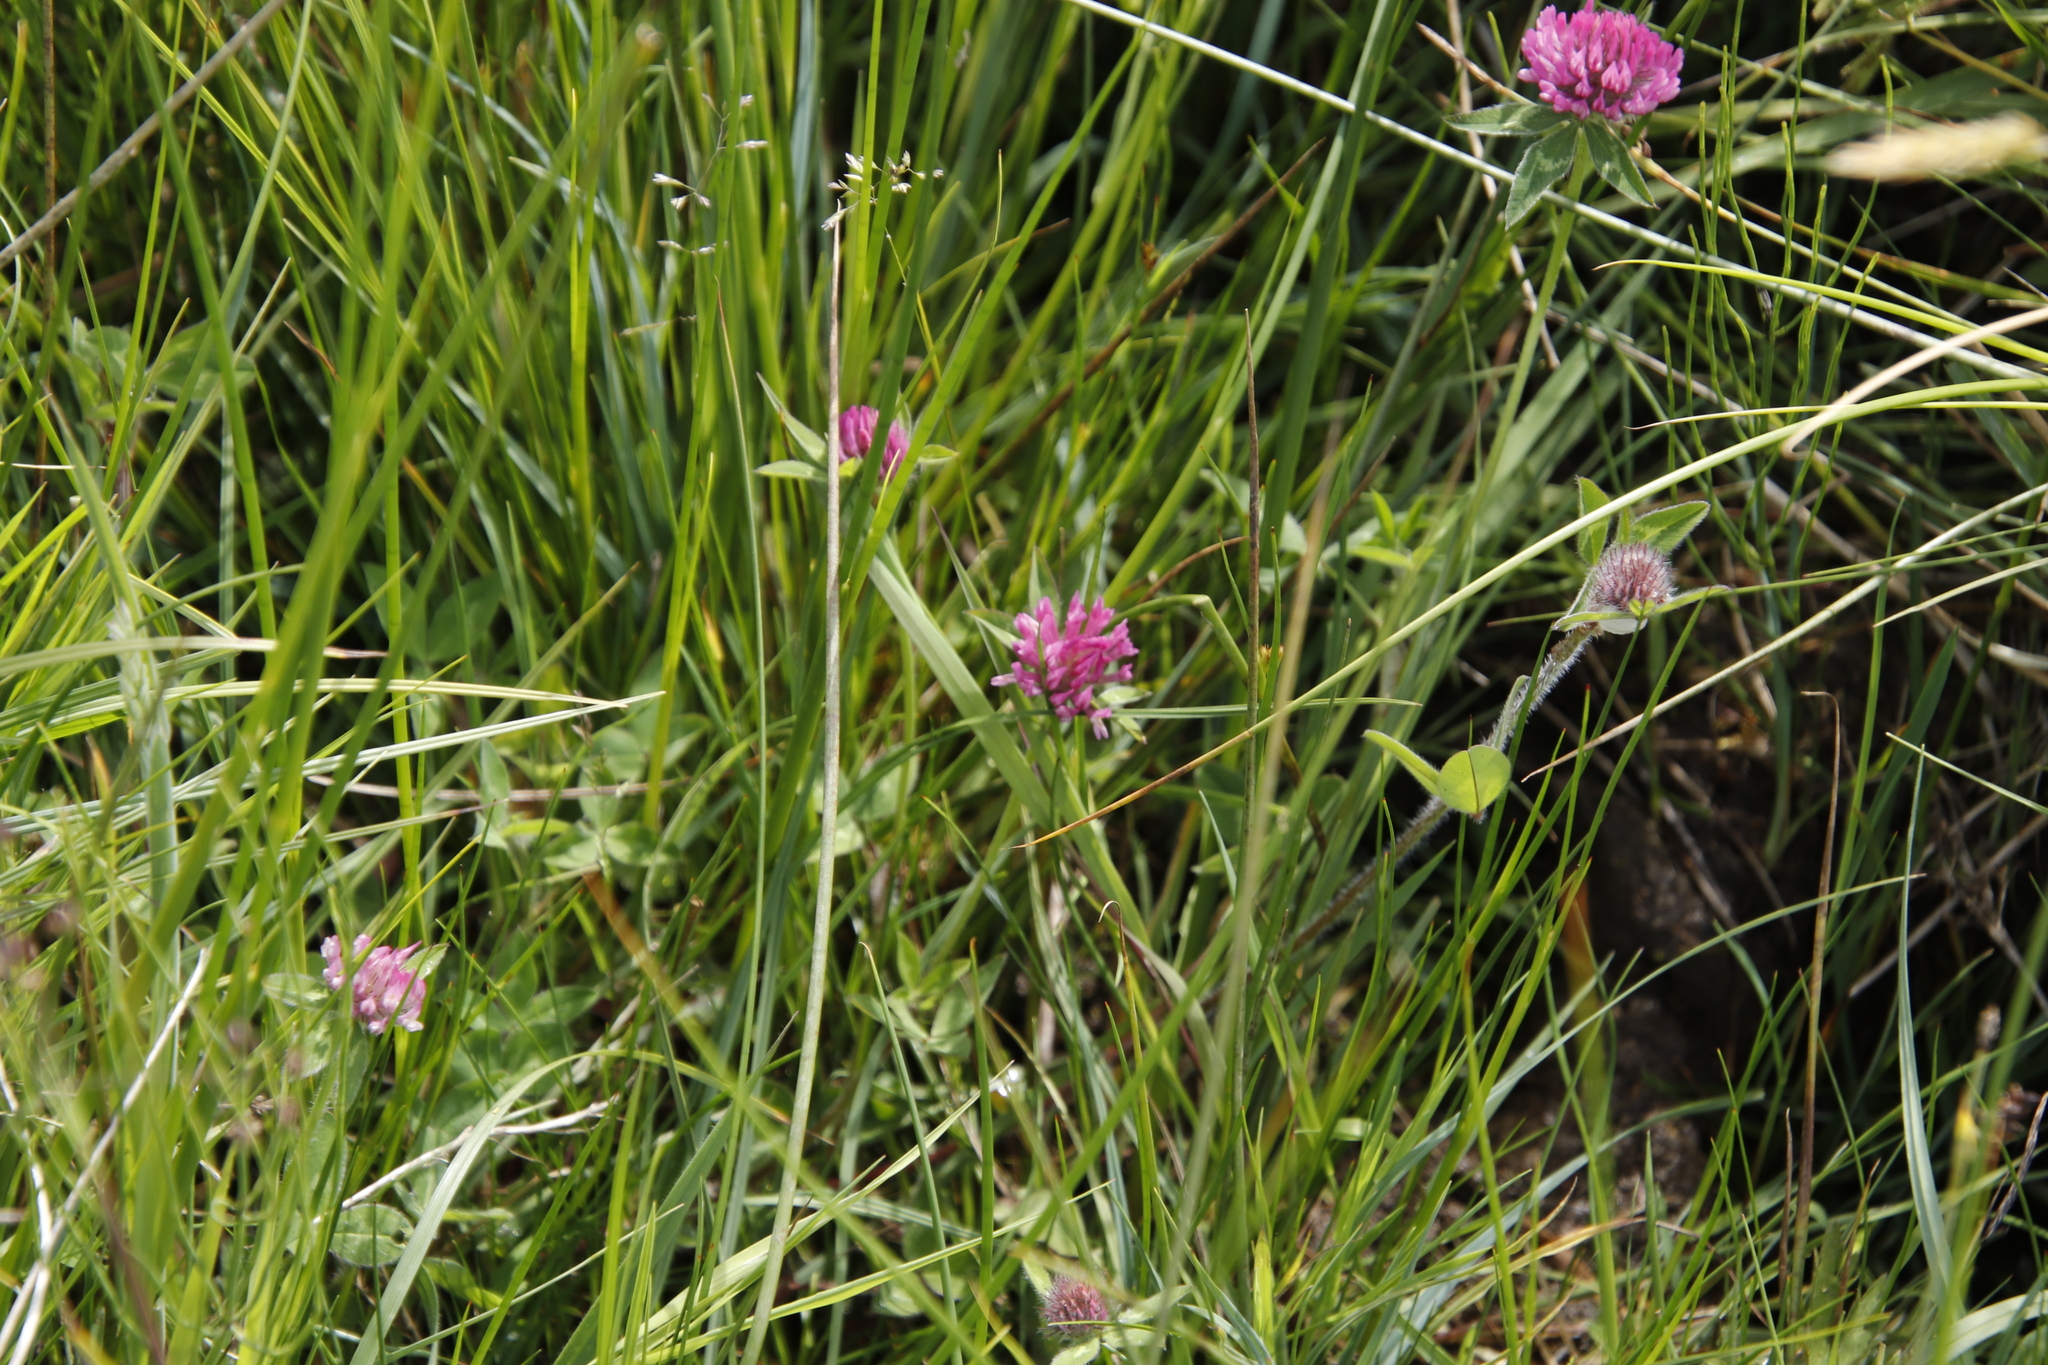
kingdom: Plantae
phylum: Tracheophyta
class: Magnoliopsida
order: Fabales
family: Fabaceae
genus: Trifolium
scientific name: Trifolium pratense
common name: Red clover
